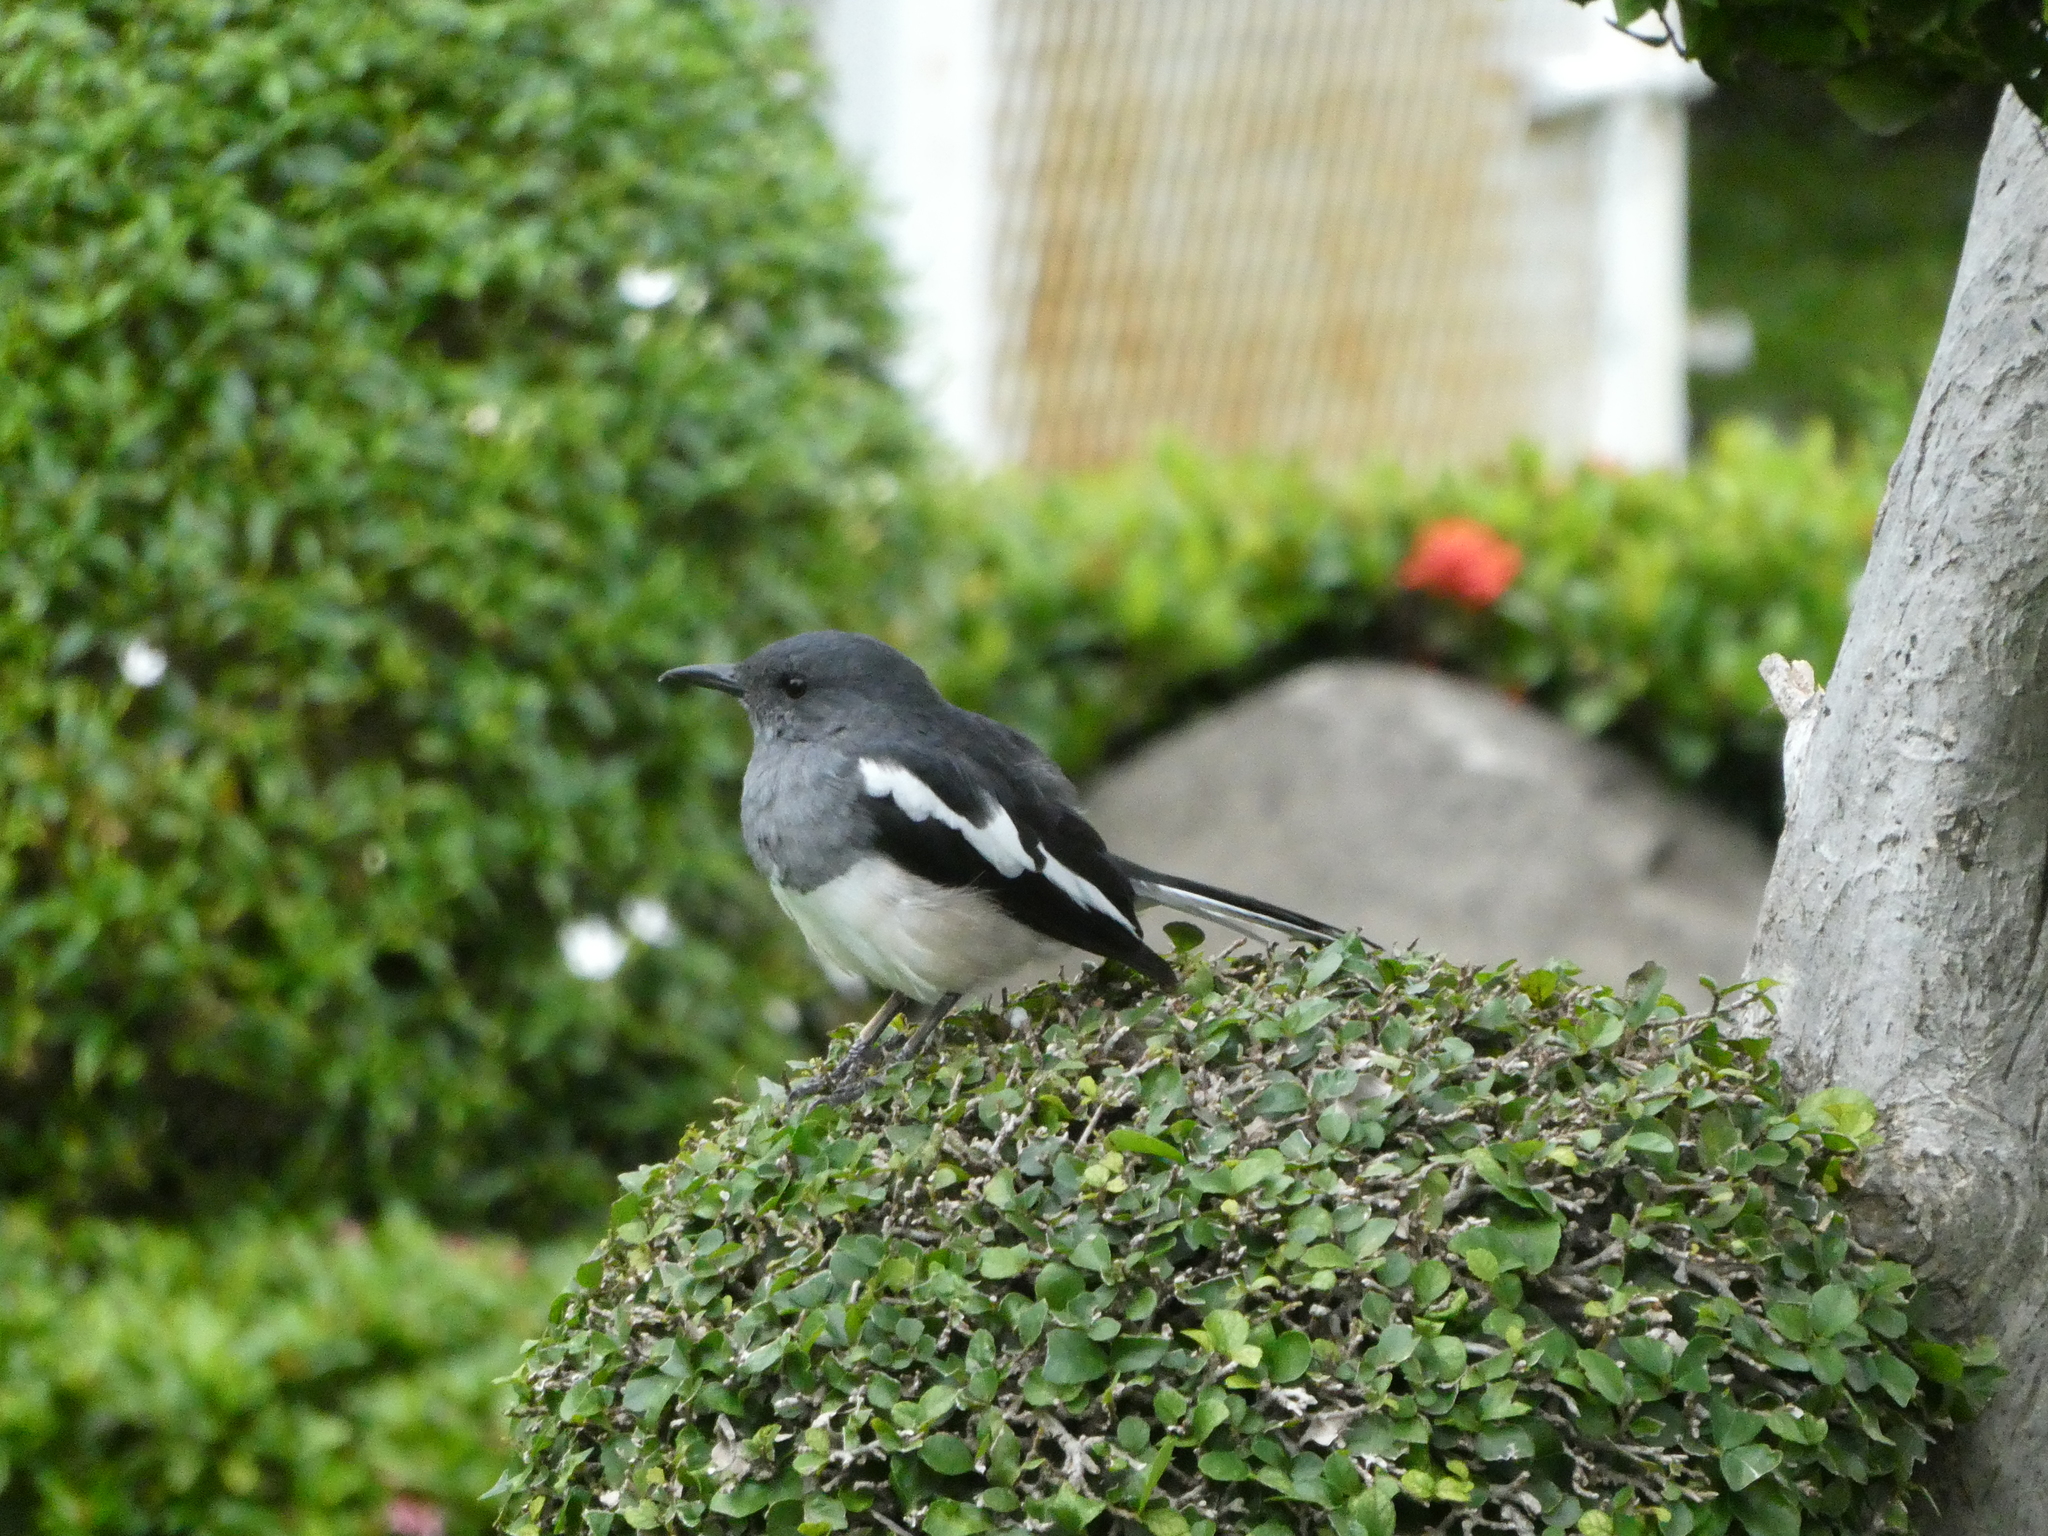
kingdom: Animalia
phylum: Chordata
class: Aves
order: Passeriformes
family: Muscicapidae
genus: Copsychus
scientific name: Copsychus saularis
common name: Oriental magpie-robin
